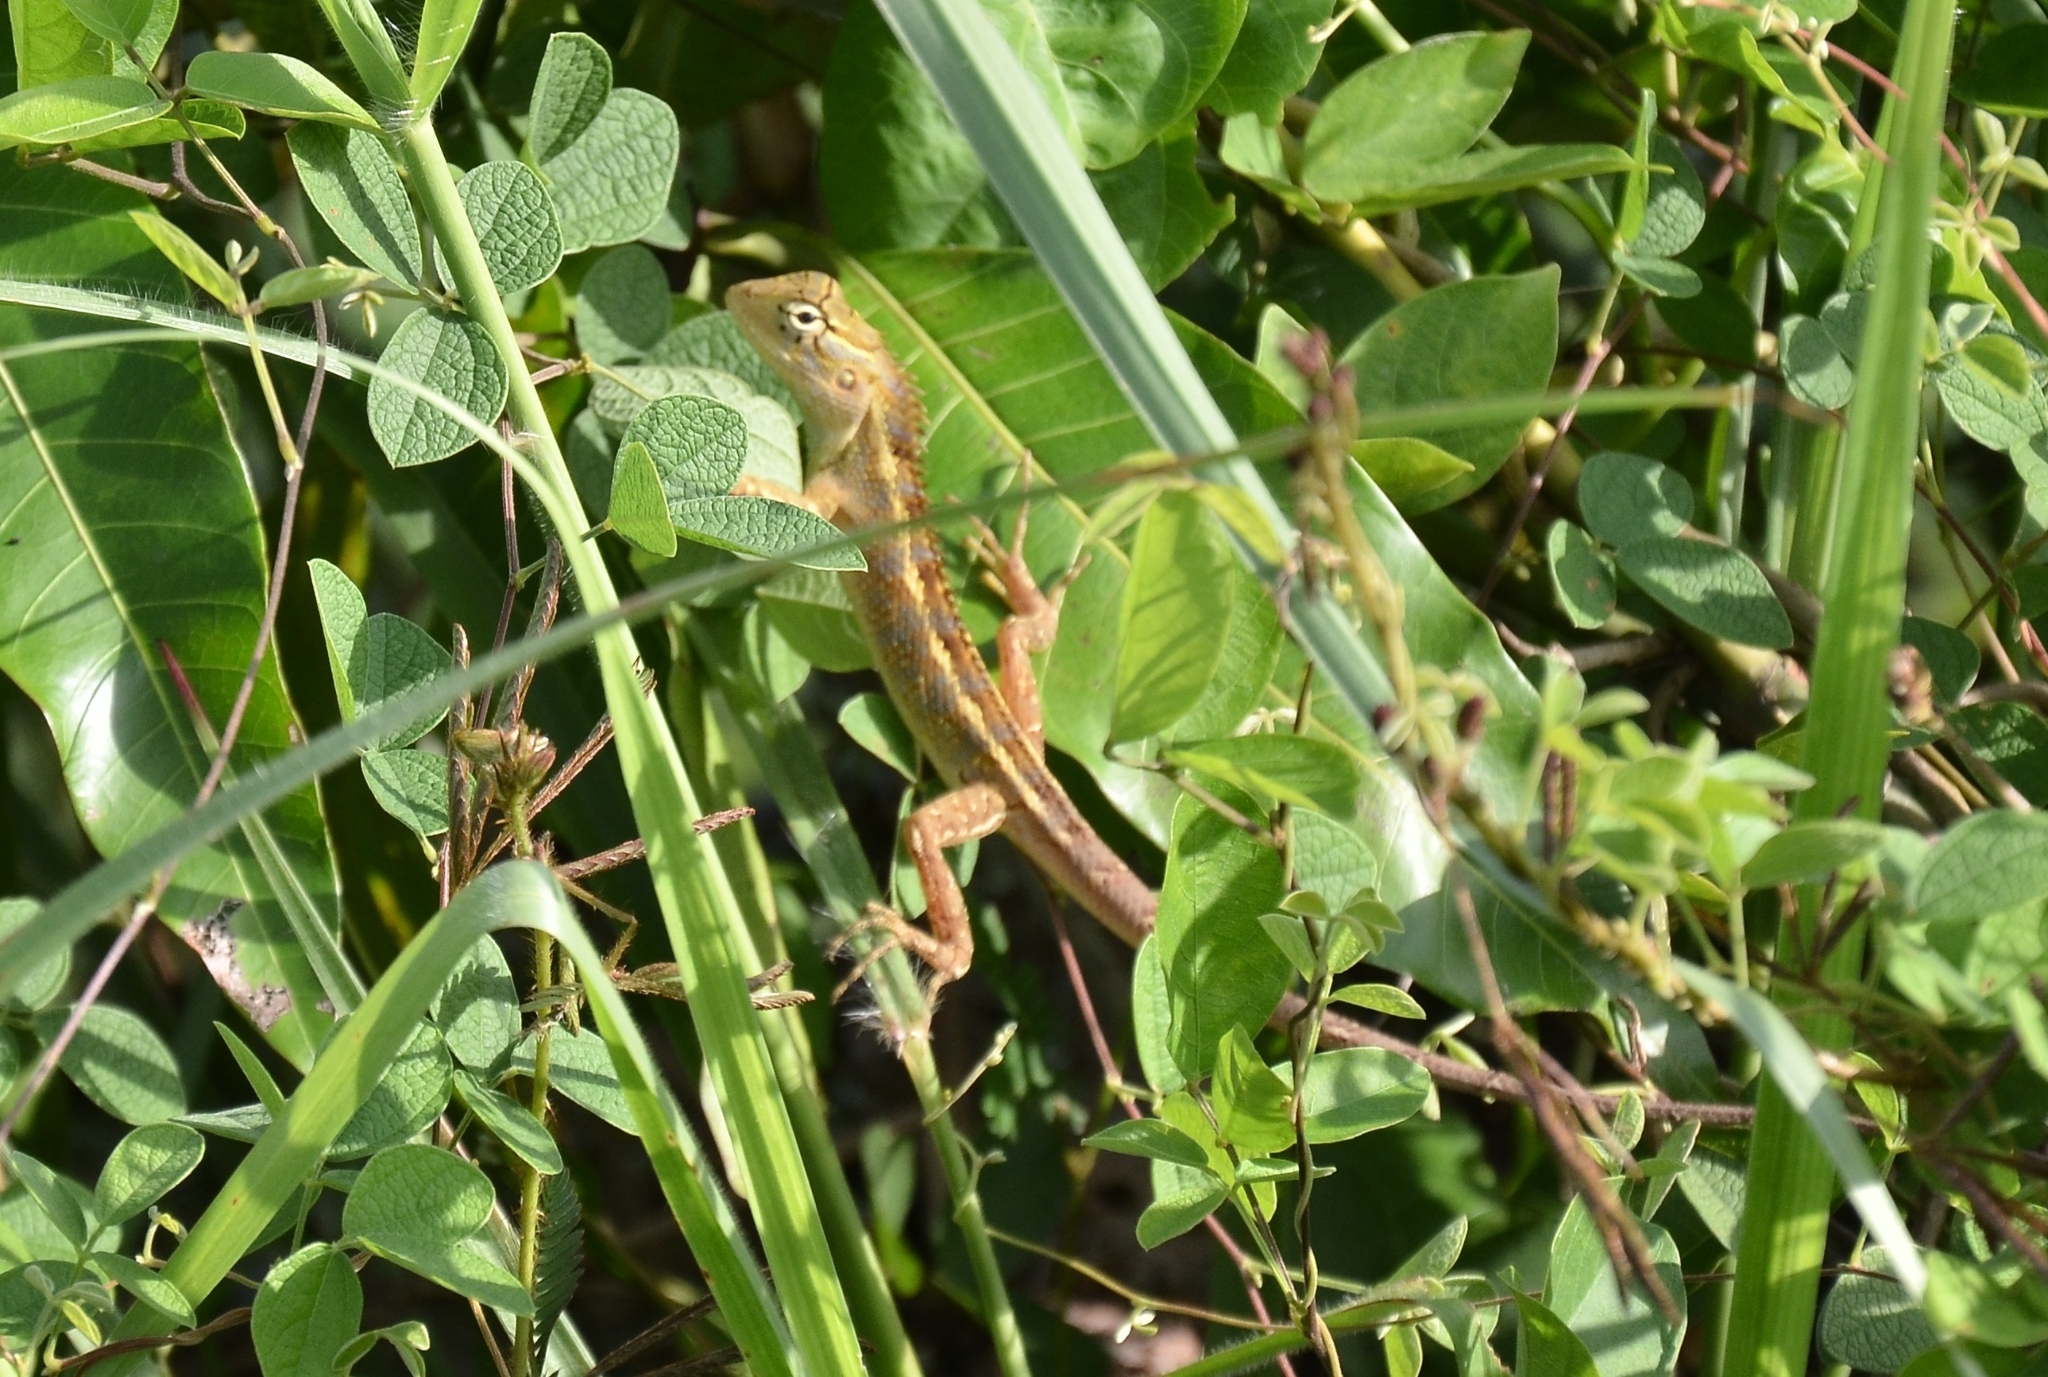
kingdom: Animalia
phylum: Chordata
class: Squamata
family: Agamidae
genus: Calotes
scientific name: Calotes versicolor
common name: Oriental garden lizard
